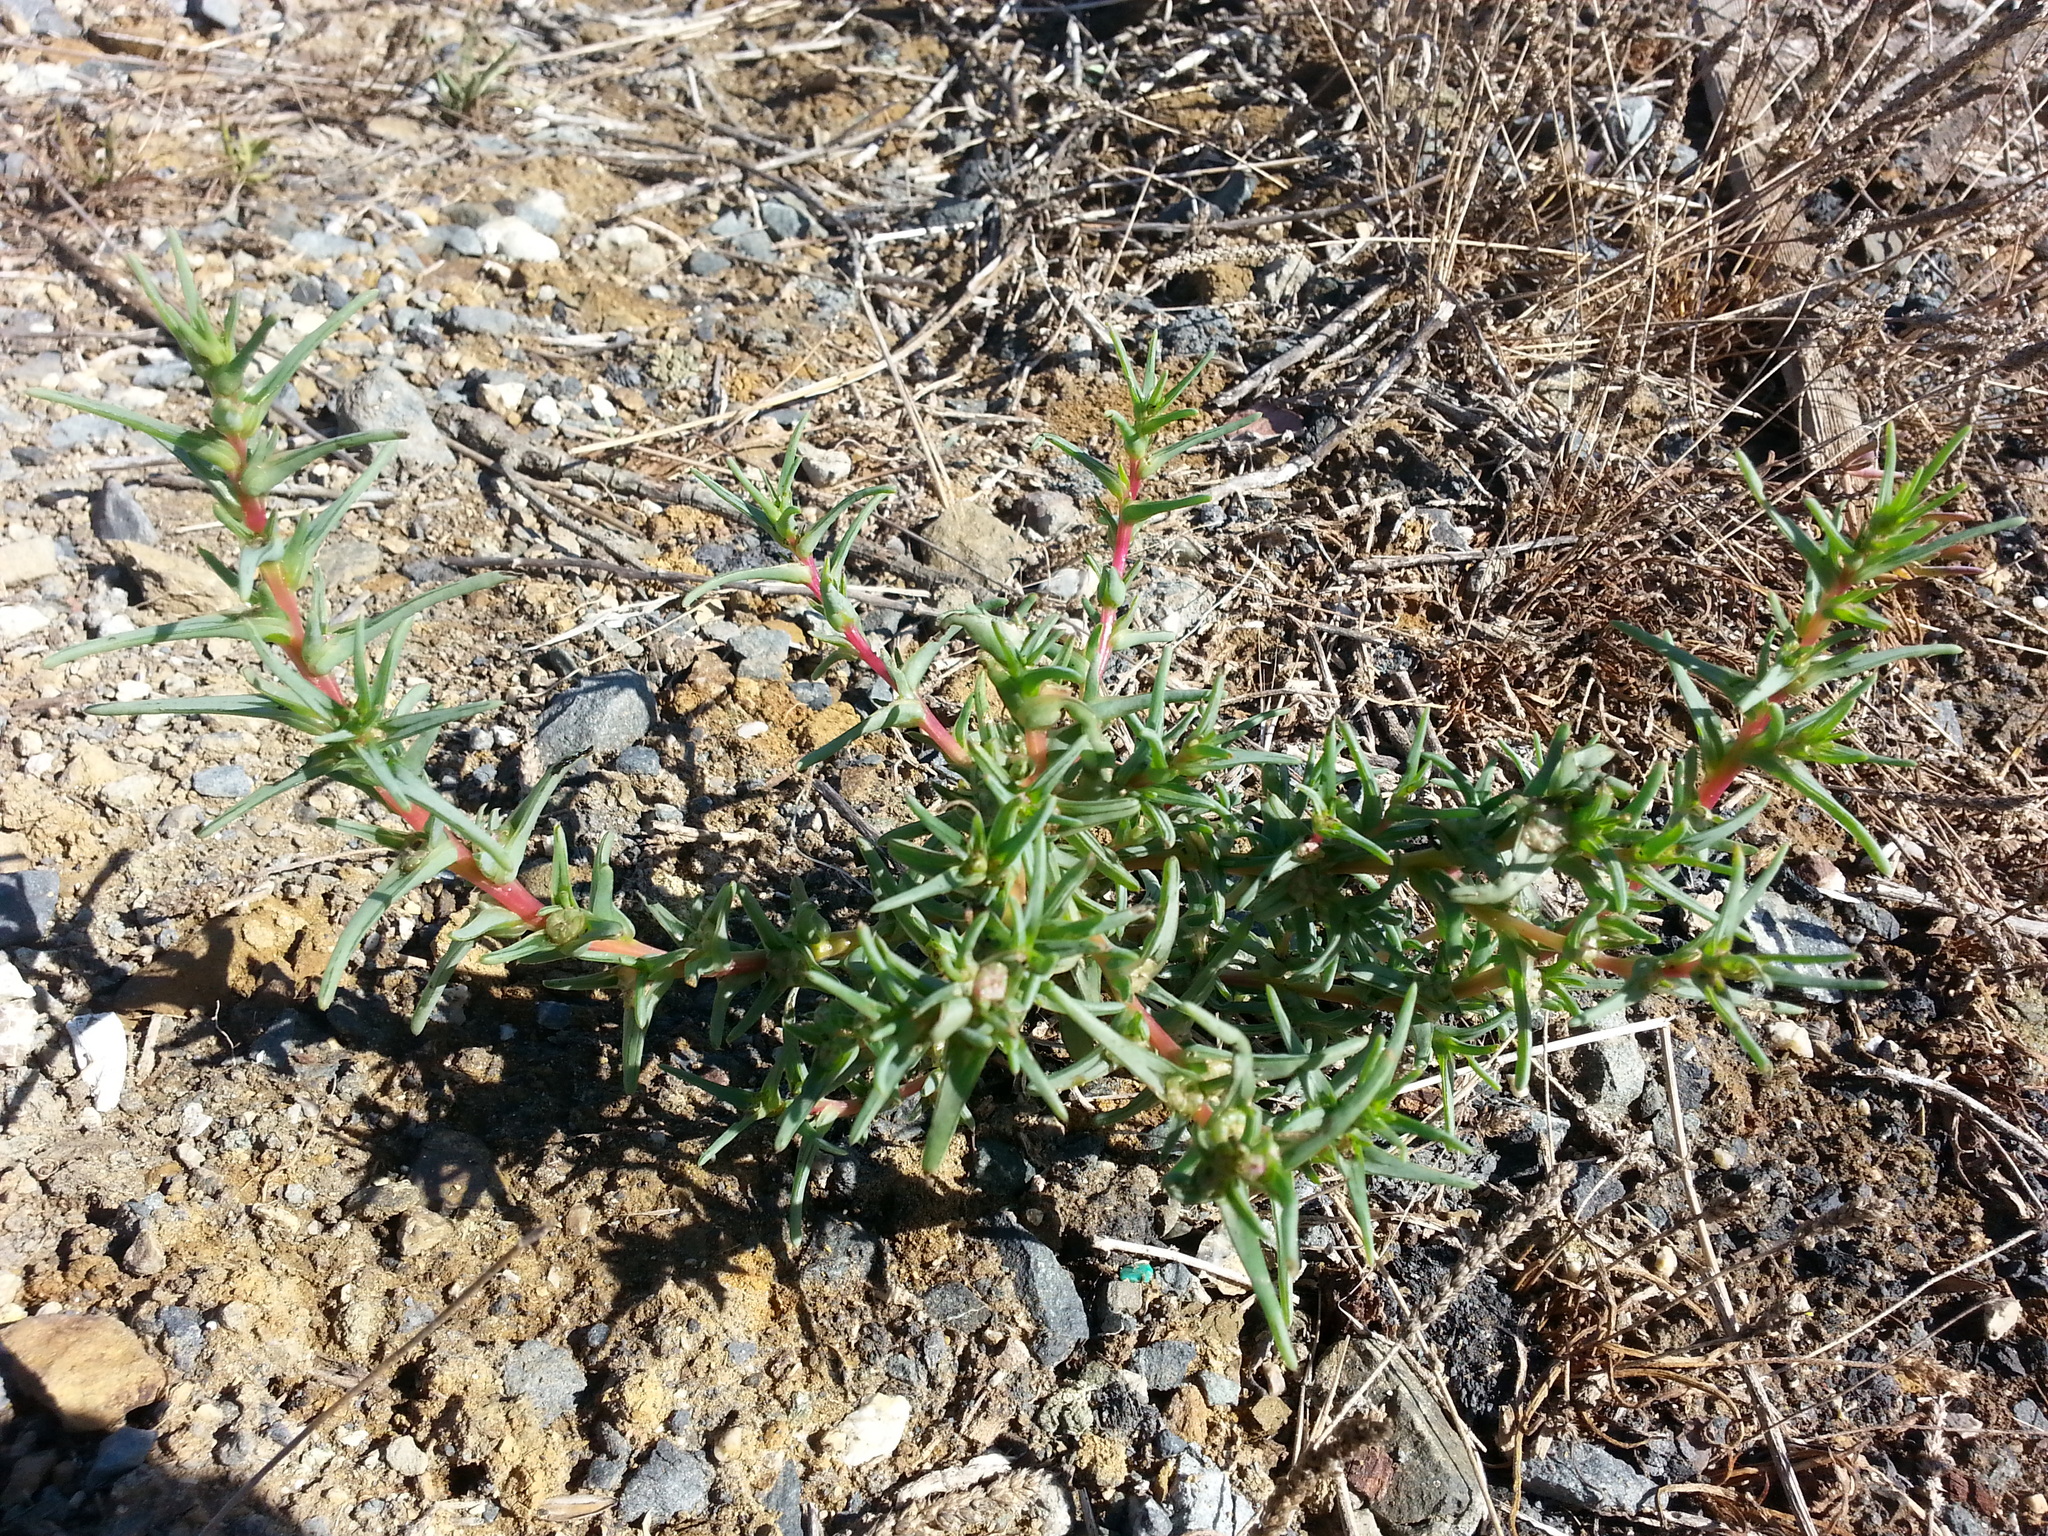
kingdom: Plantae
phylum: Tracheophyta
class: Magnoliopsida
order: Caryophyllales
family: Amaranthaceae
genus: Salsola
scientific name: Salsola soda
